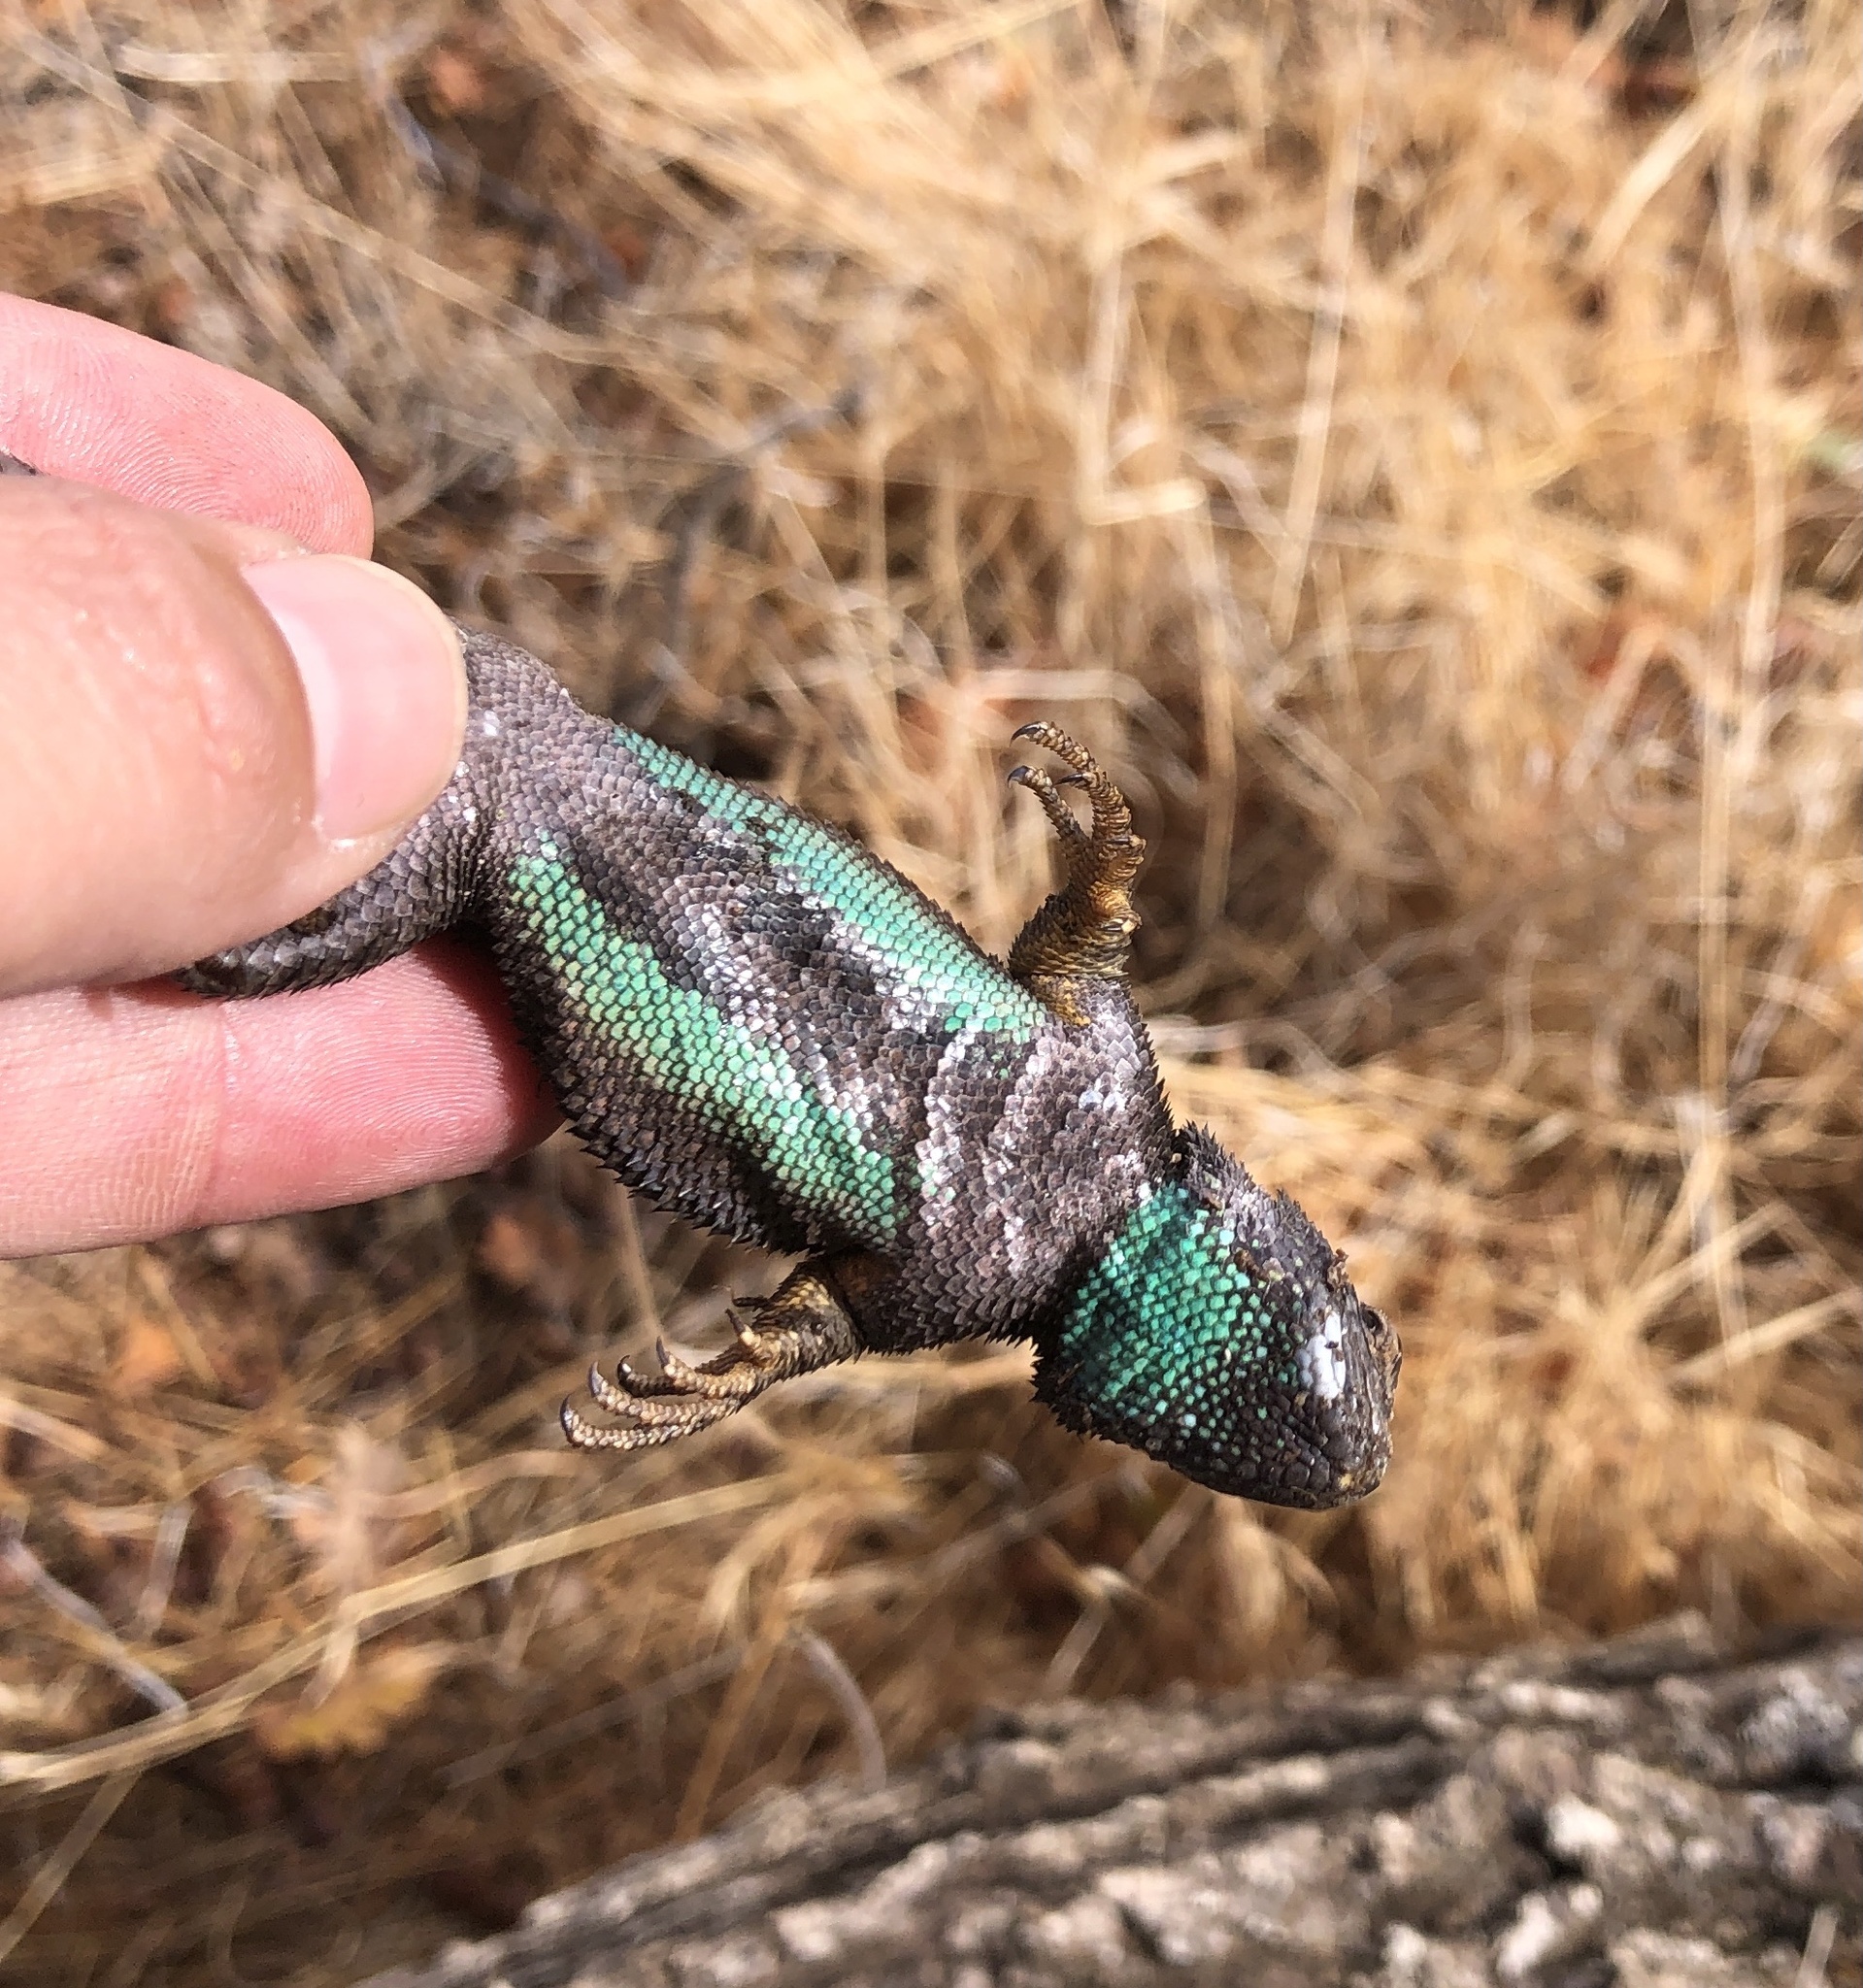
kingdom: Animalia
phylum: Chordata
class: Squamata
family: Phrynosomatidae
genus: Sceloporus
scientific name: Sceloporus occidentalis
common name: Western fence lizard
